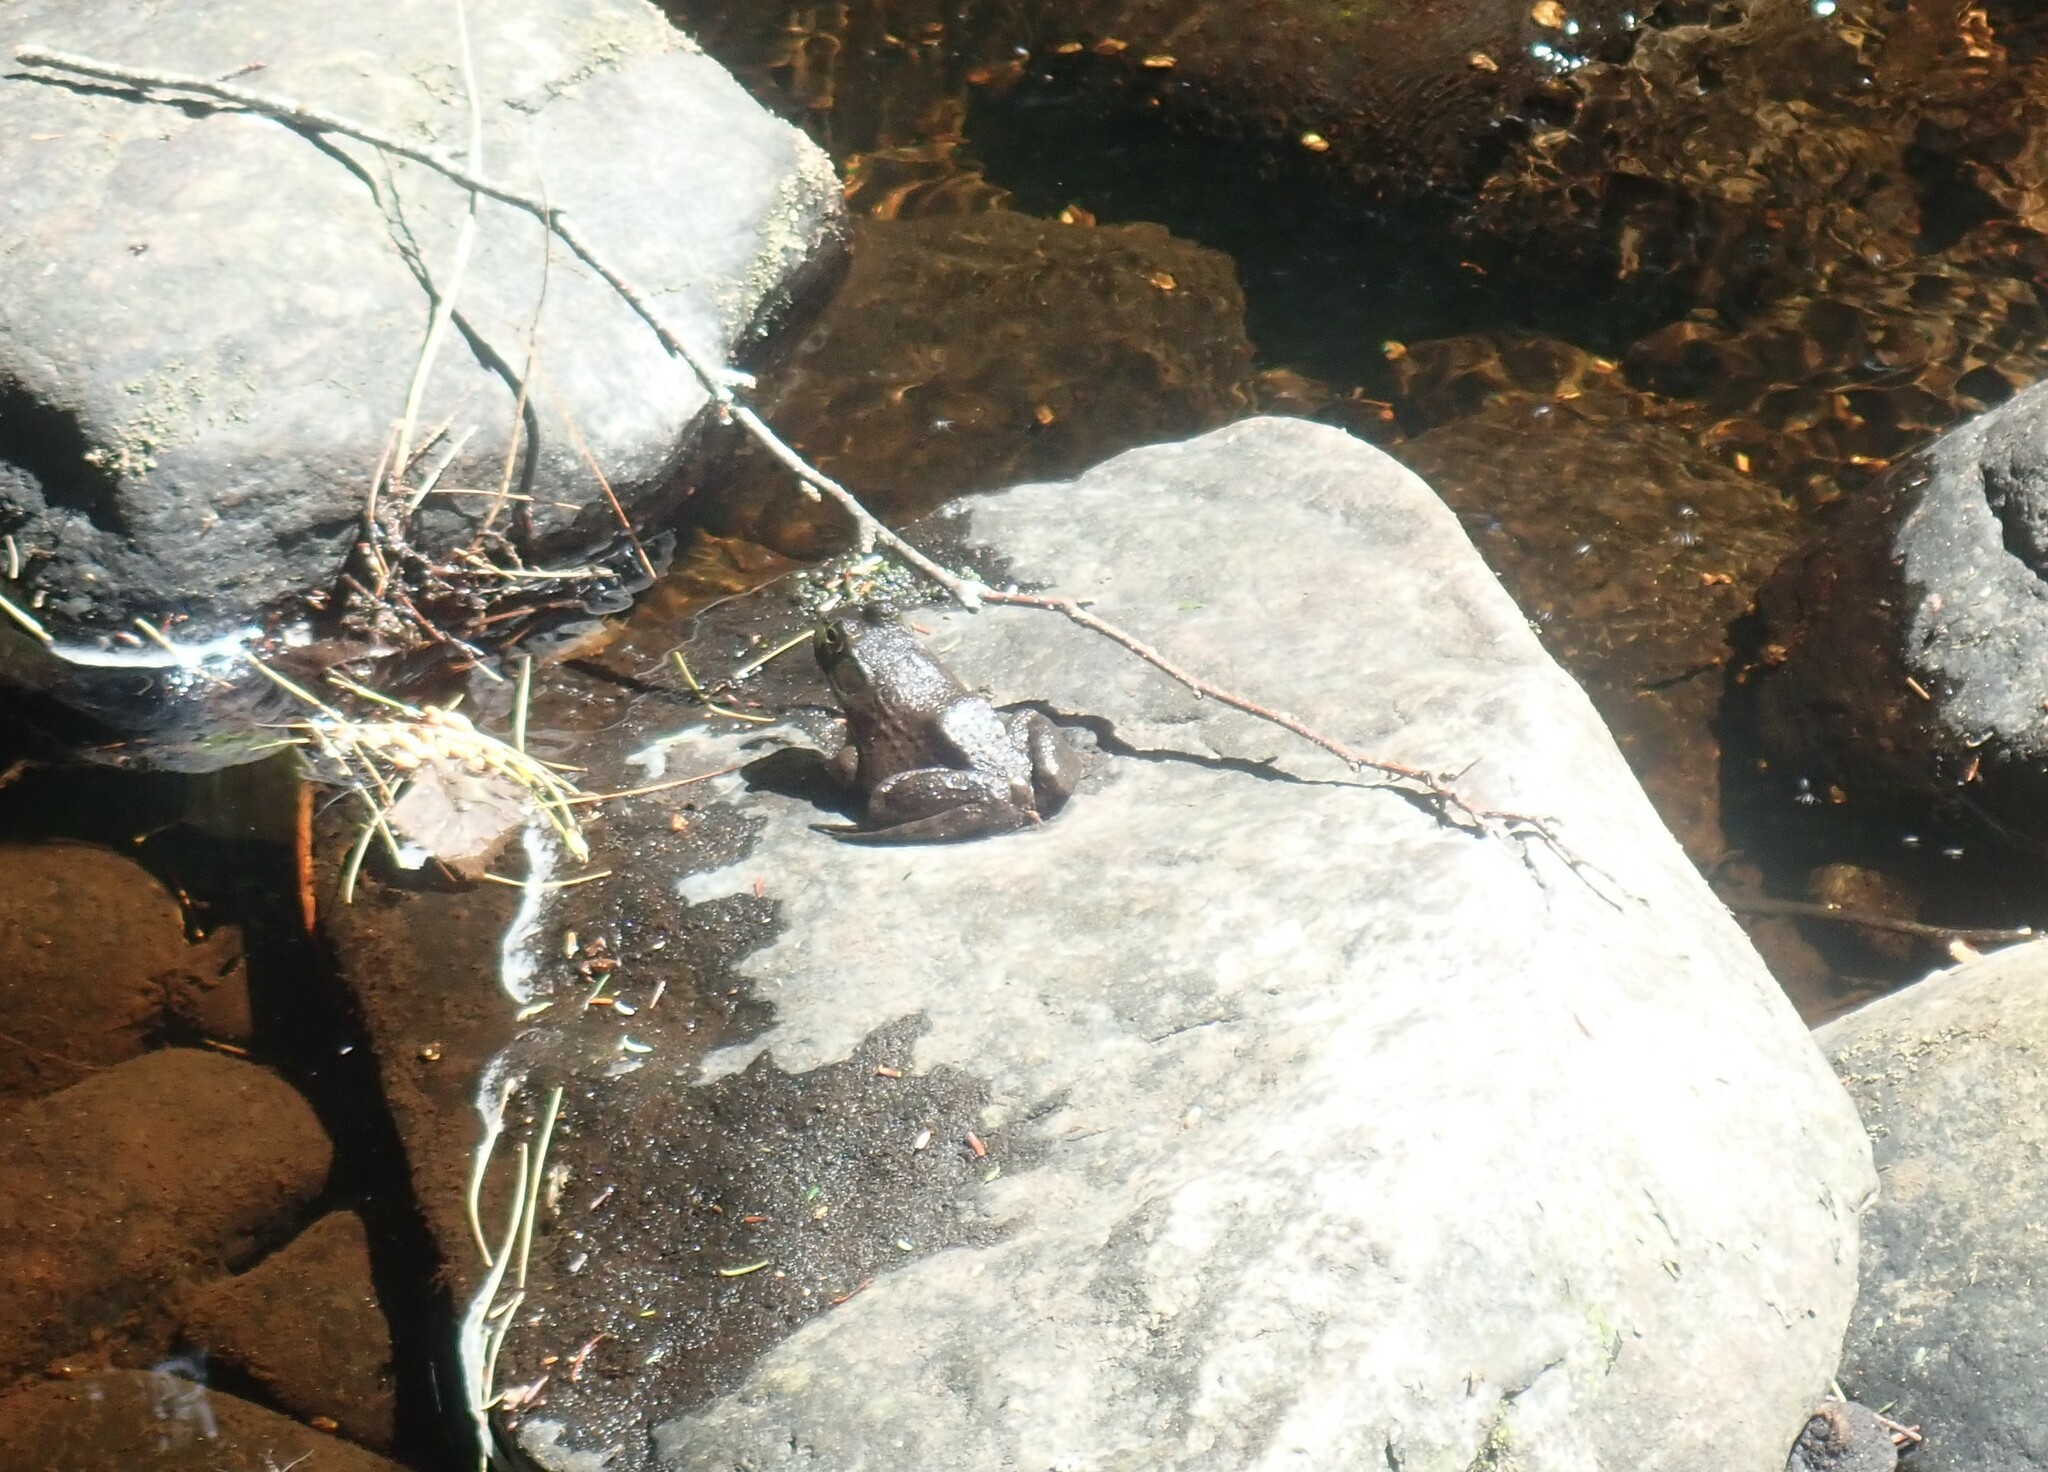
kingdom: Animalia
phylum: Chordata
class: Amphibia
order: Anura
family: Ranidae
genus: Lithobates
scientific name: Lithobates catesbeianus
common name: American bullfrog
